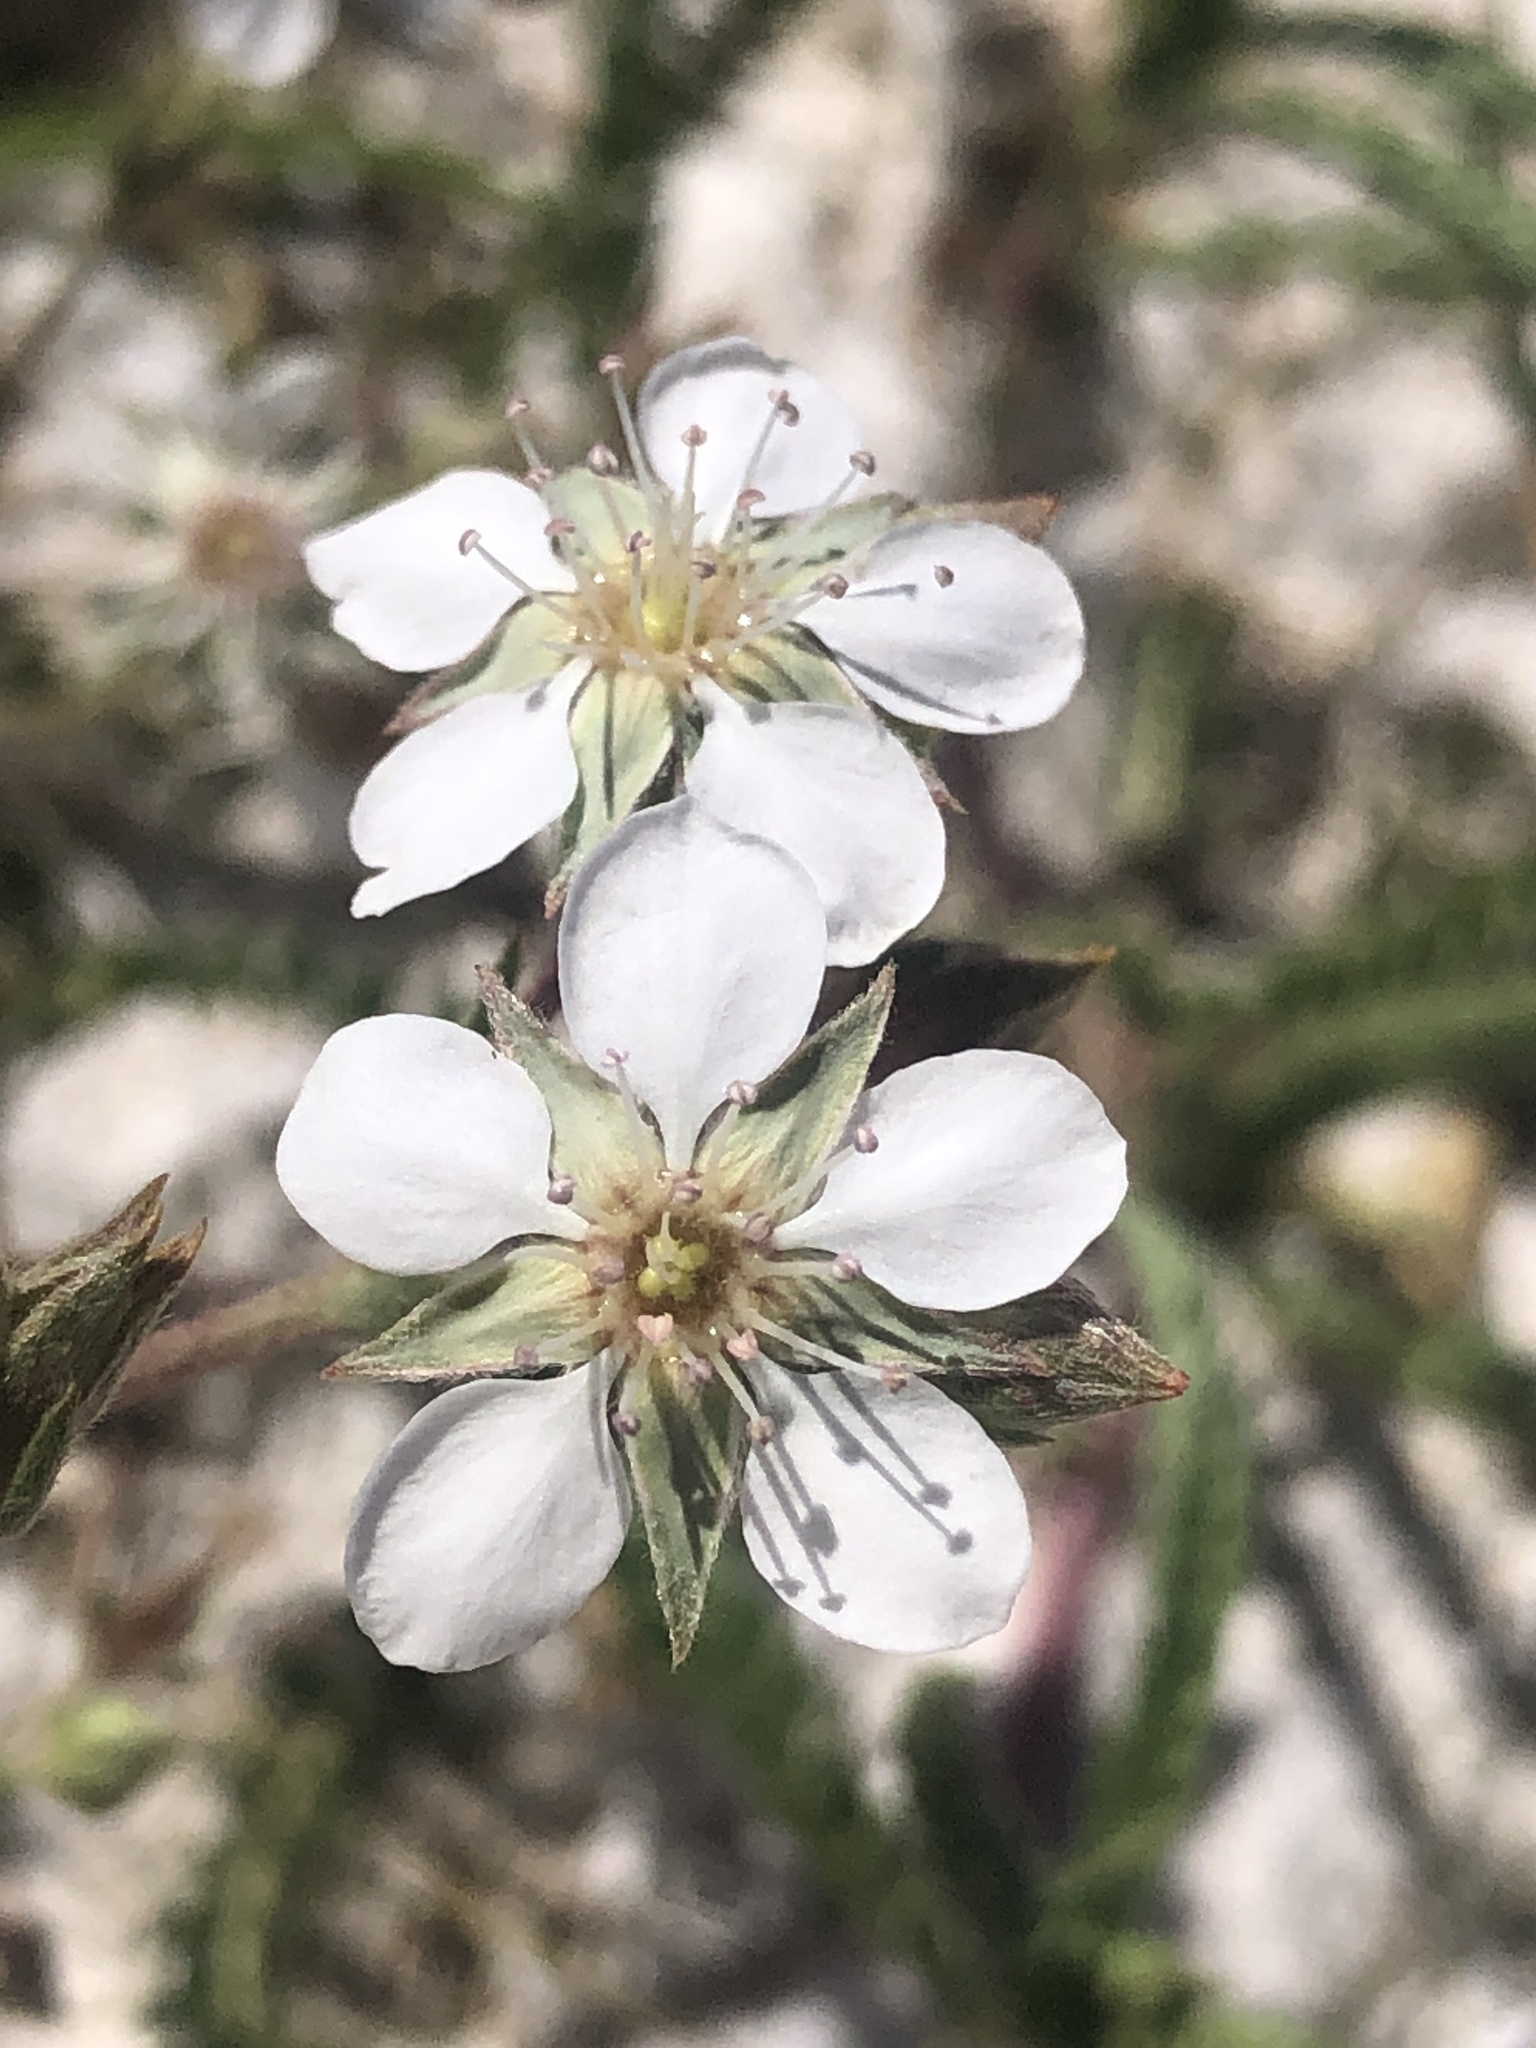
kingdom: Plantae
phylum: Tracheophyta
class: Magnoliopsida
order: Rosales
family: Rosaceae
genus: Potentilla
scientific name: Potentilla kingii
